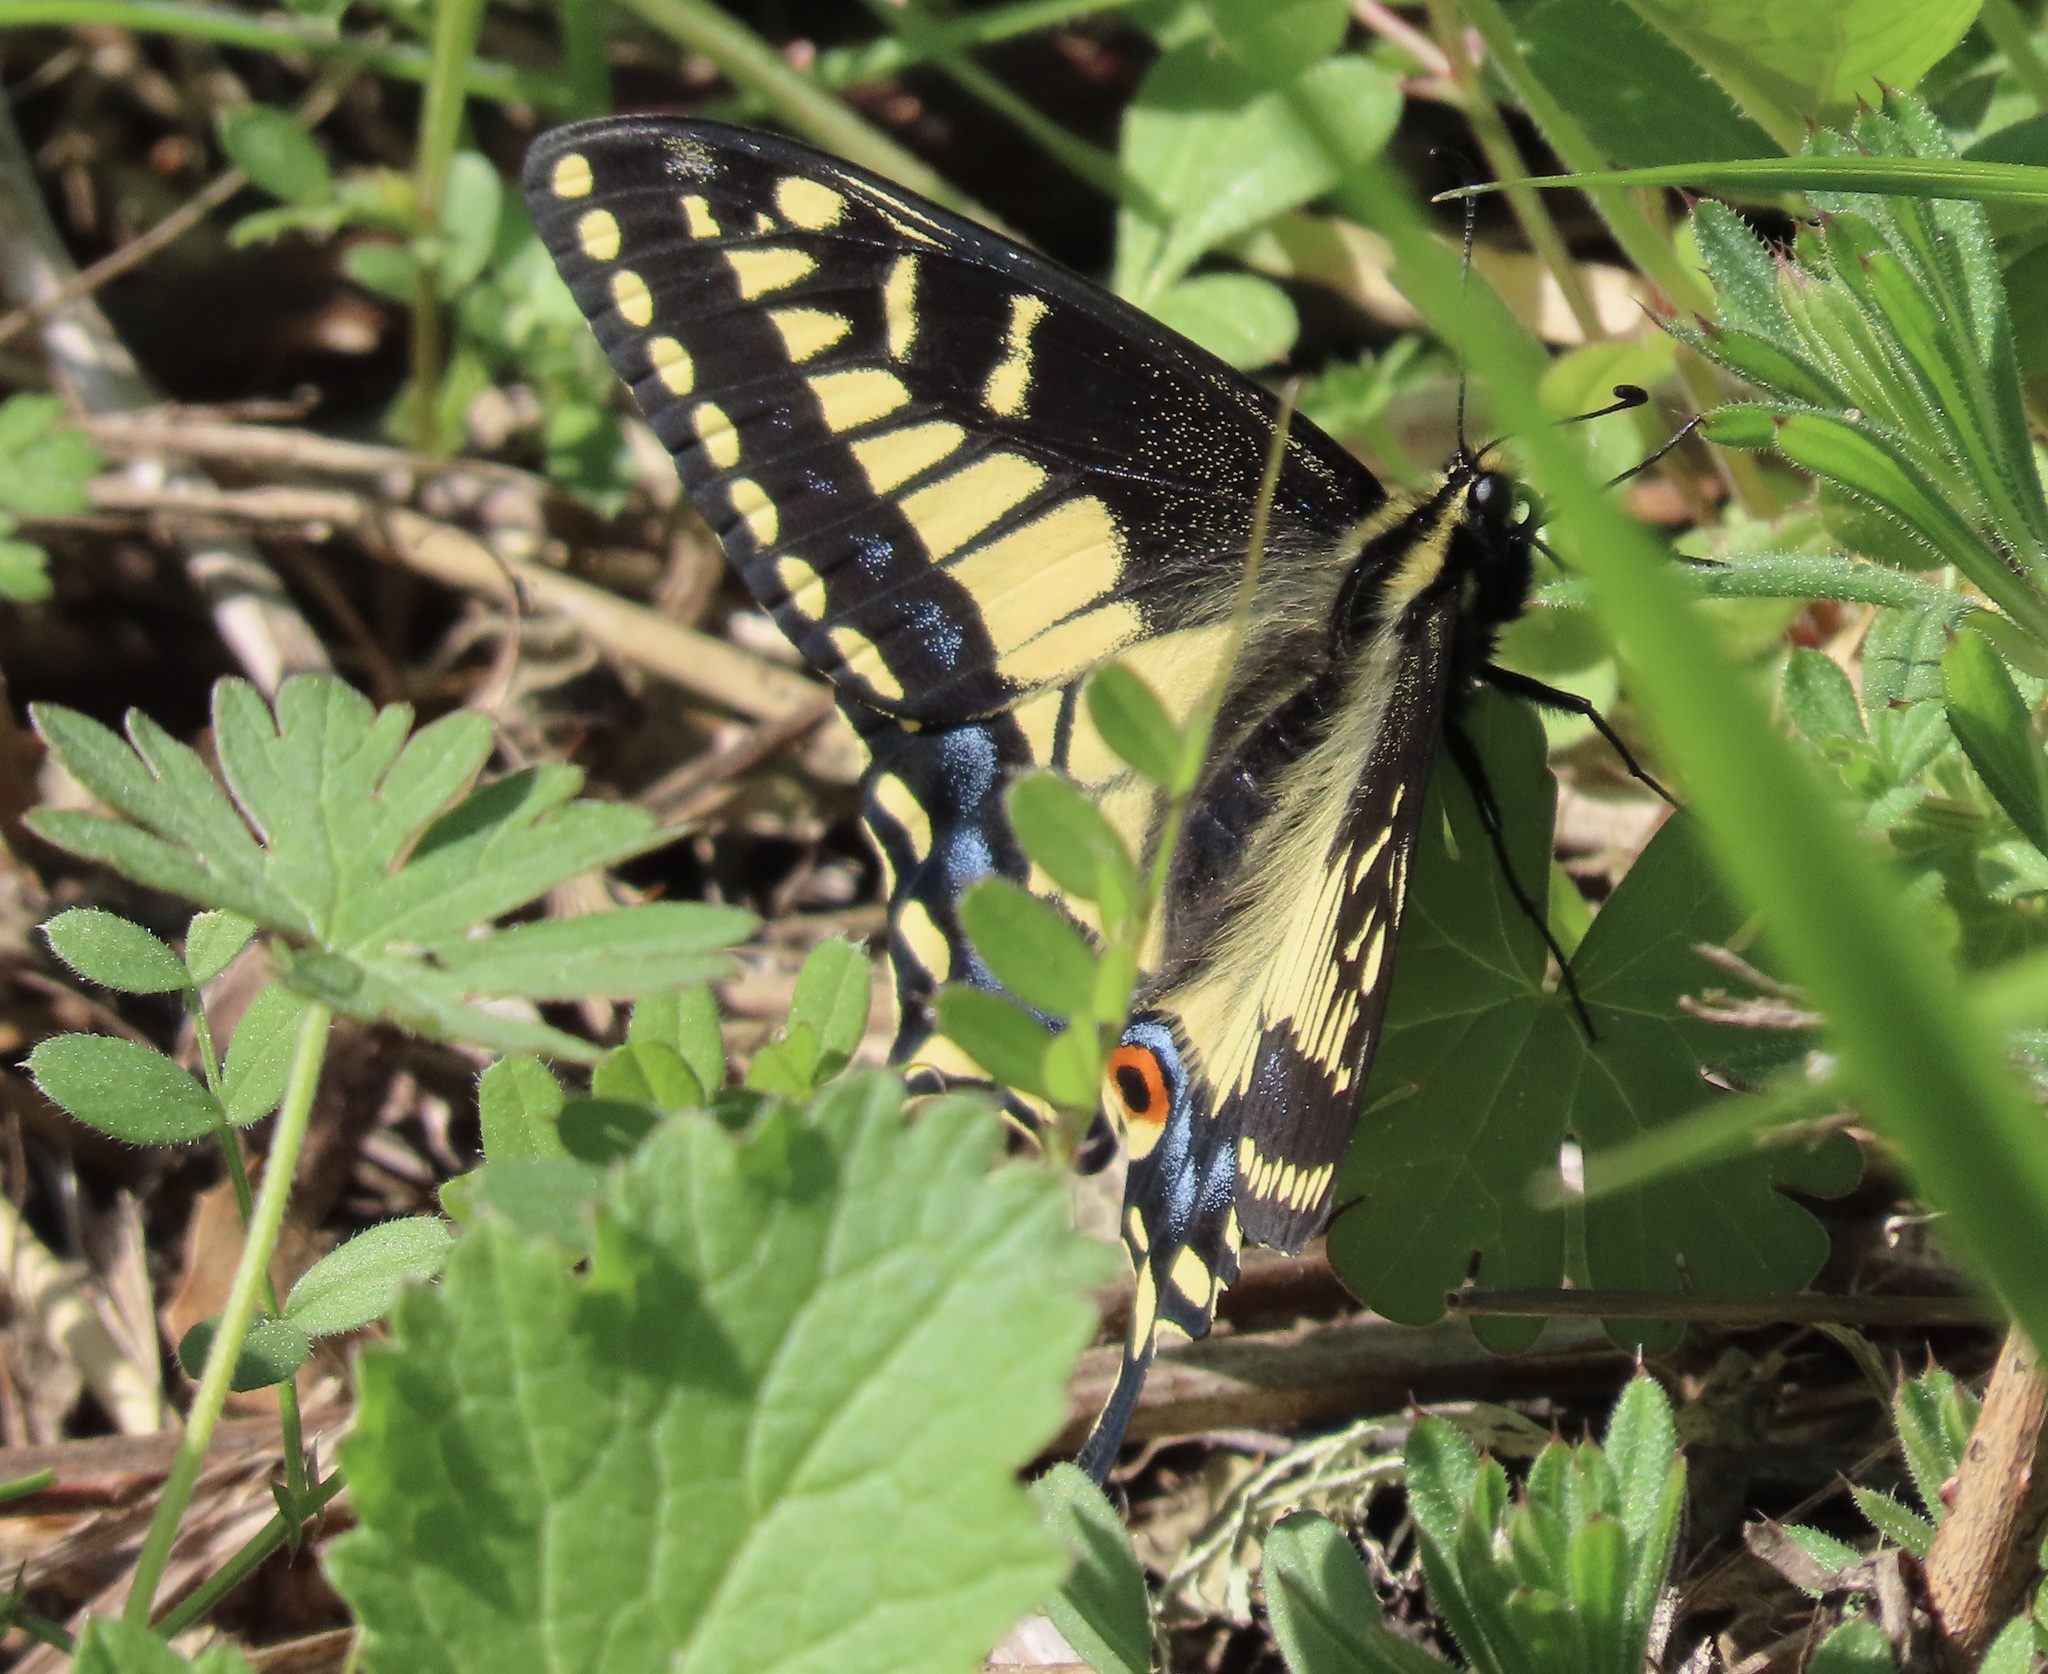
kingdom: Animalia
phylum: Arthropoda
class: Insecta
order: Lepidoptera
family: Papilionidae
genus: Papilio
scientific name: Papilio zelicaon
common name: Anise swallowtail
